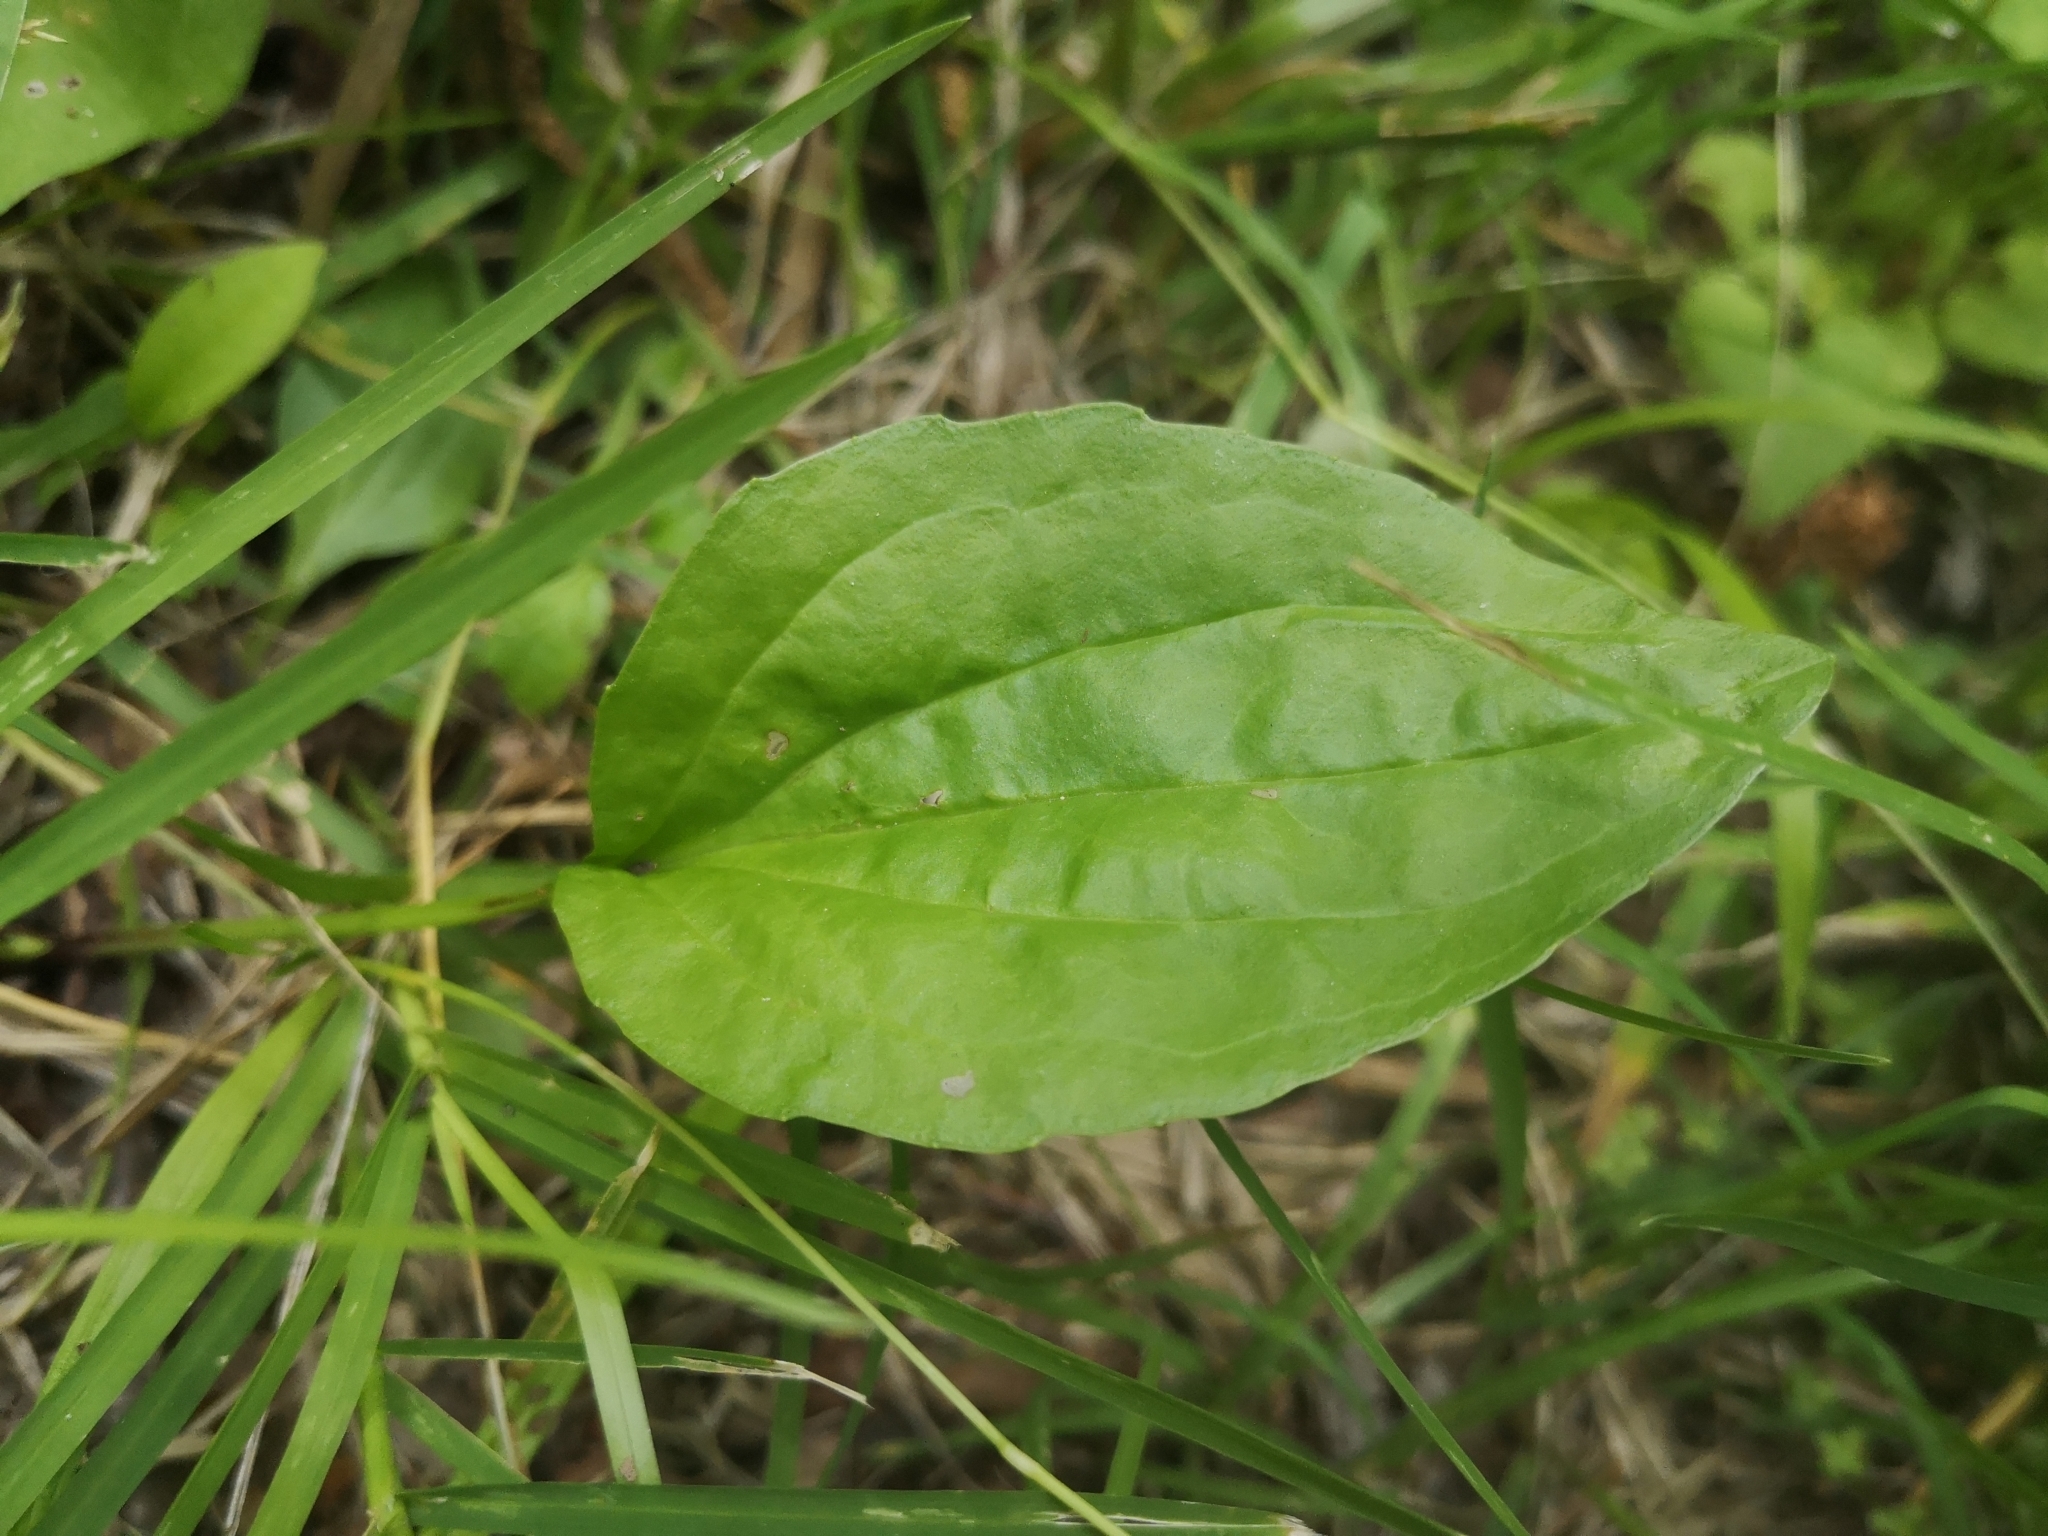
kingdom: Plantae
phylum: Tracheophyta
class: Magnoliopsida
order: Lamiales
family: Plantaginaceae
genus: Plantago
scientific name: Plantago major
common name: Common plantain
